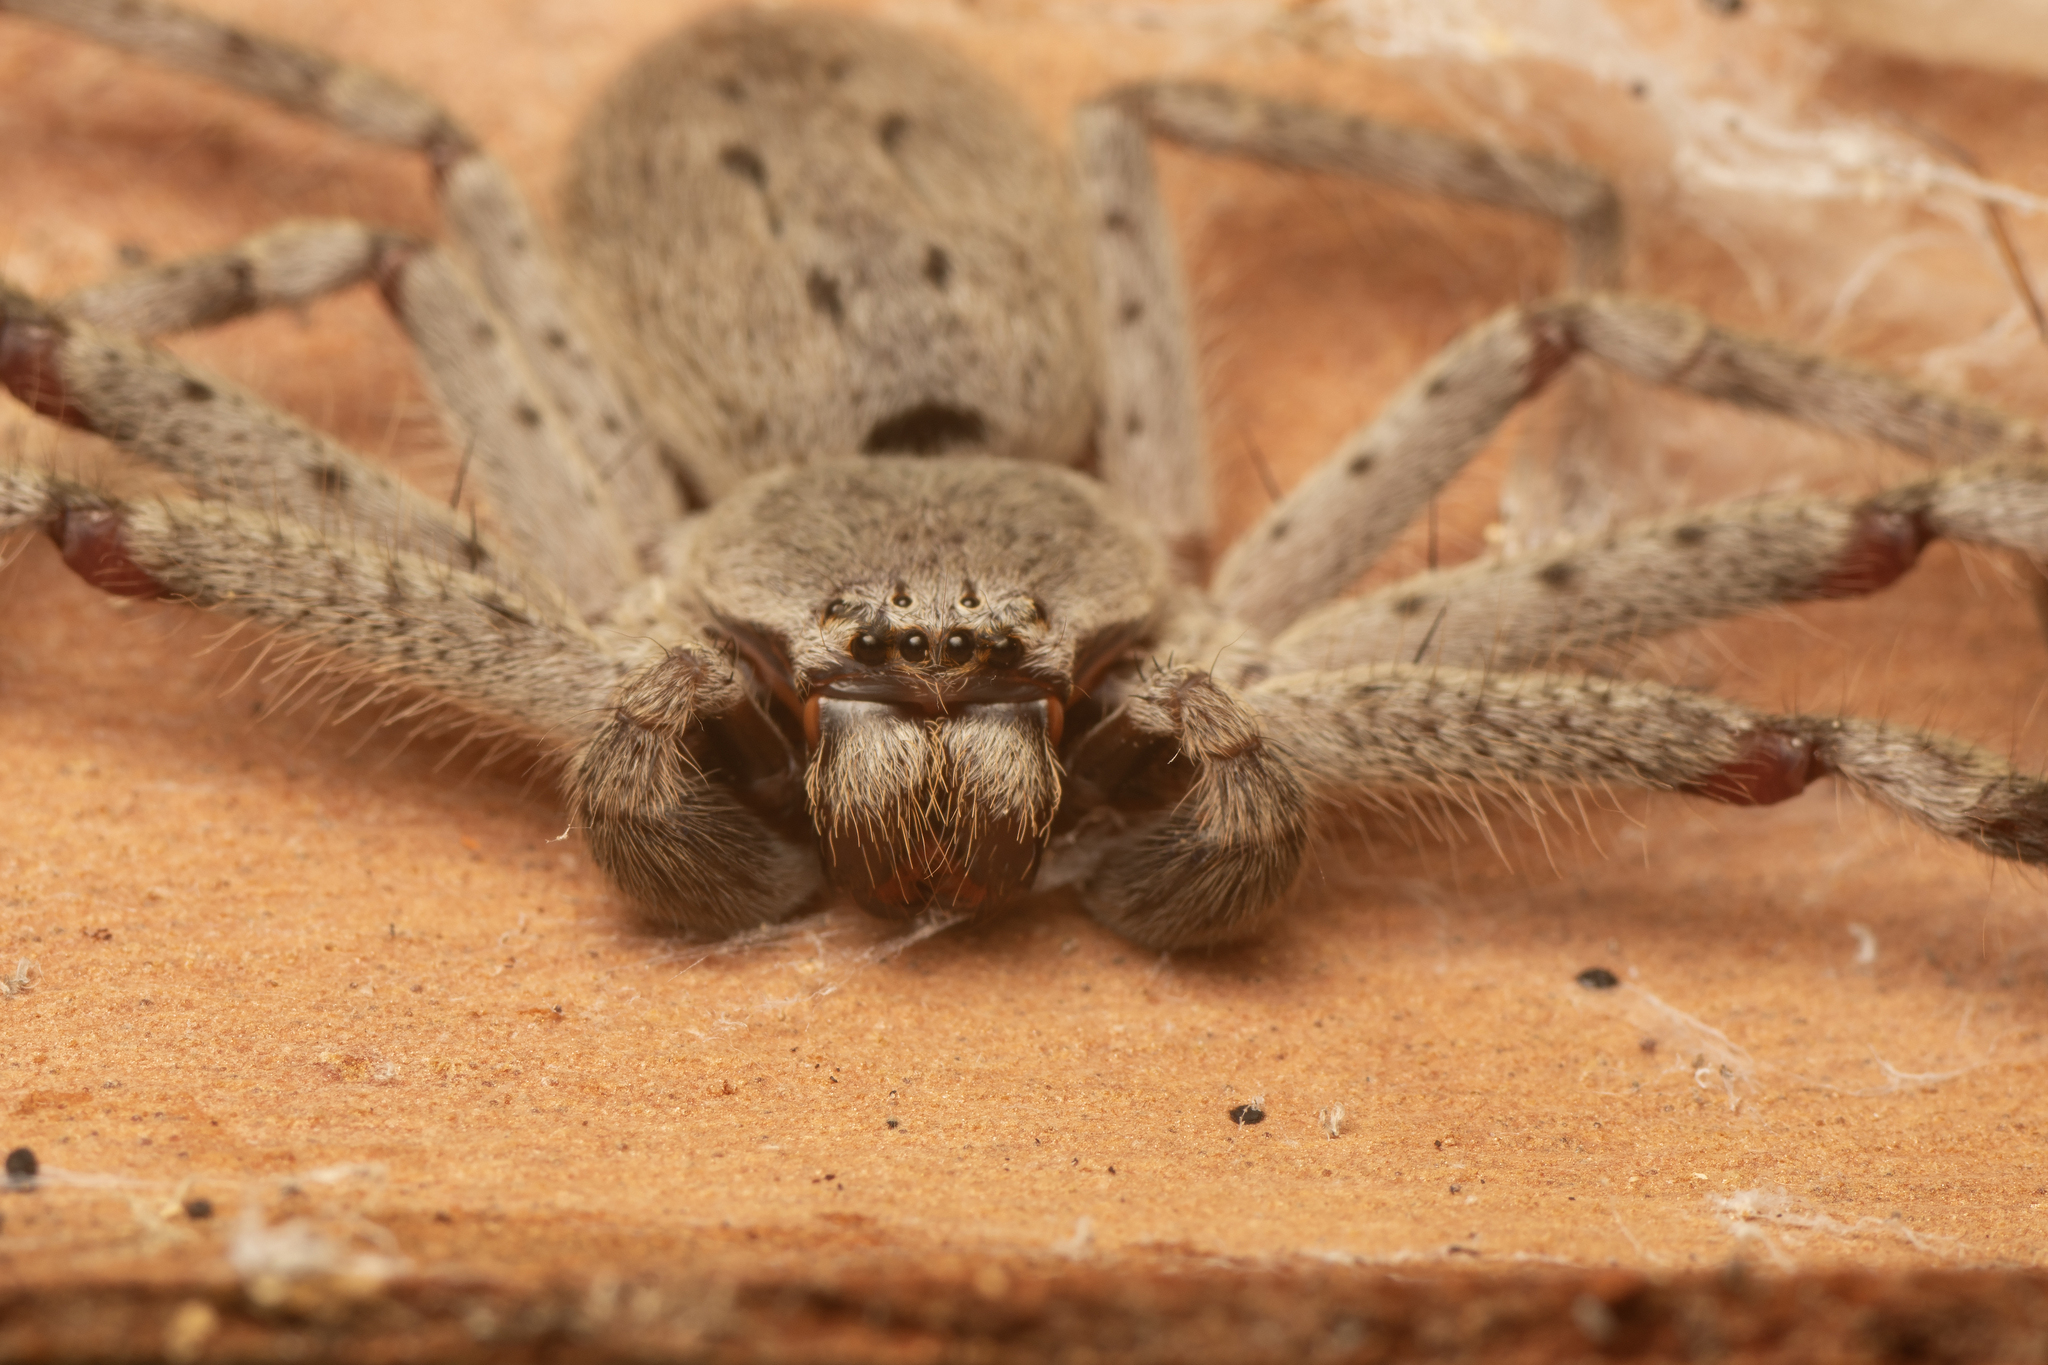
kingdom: Animalia
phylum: Arthropoda
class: Arachnida
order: Araneae
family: Sparassidae
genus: Isopeda
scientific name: Isopeda canberrana
